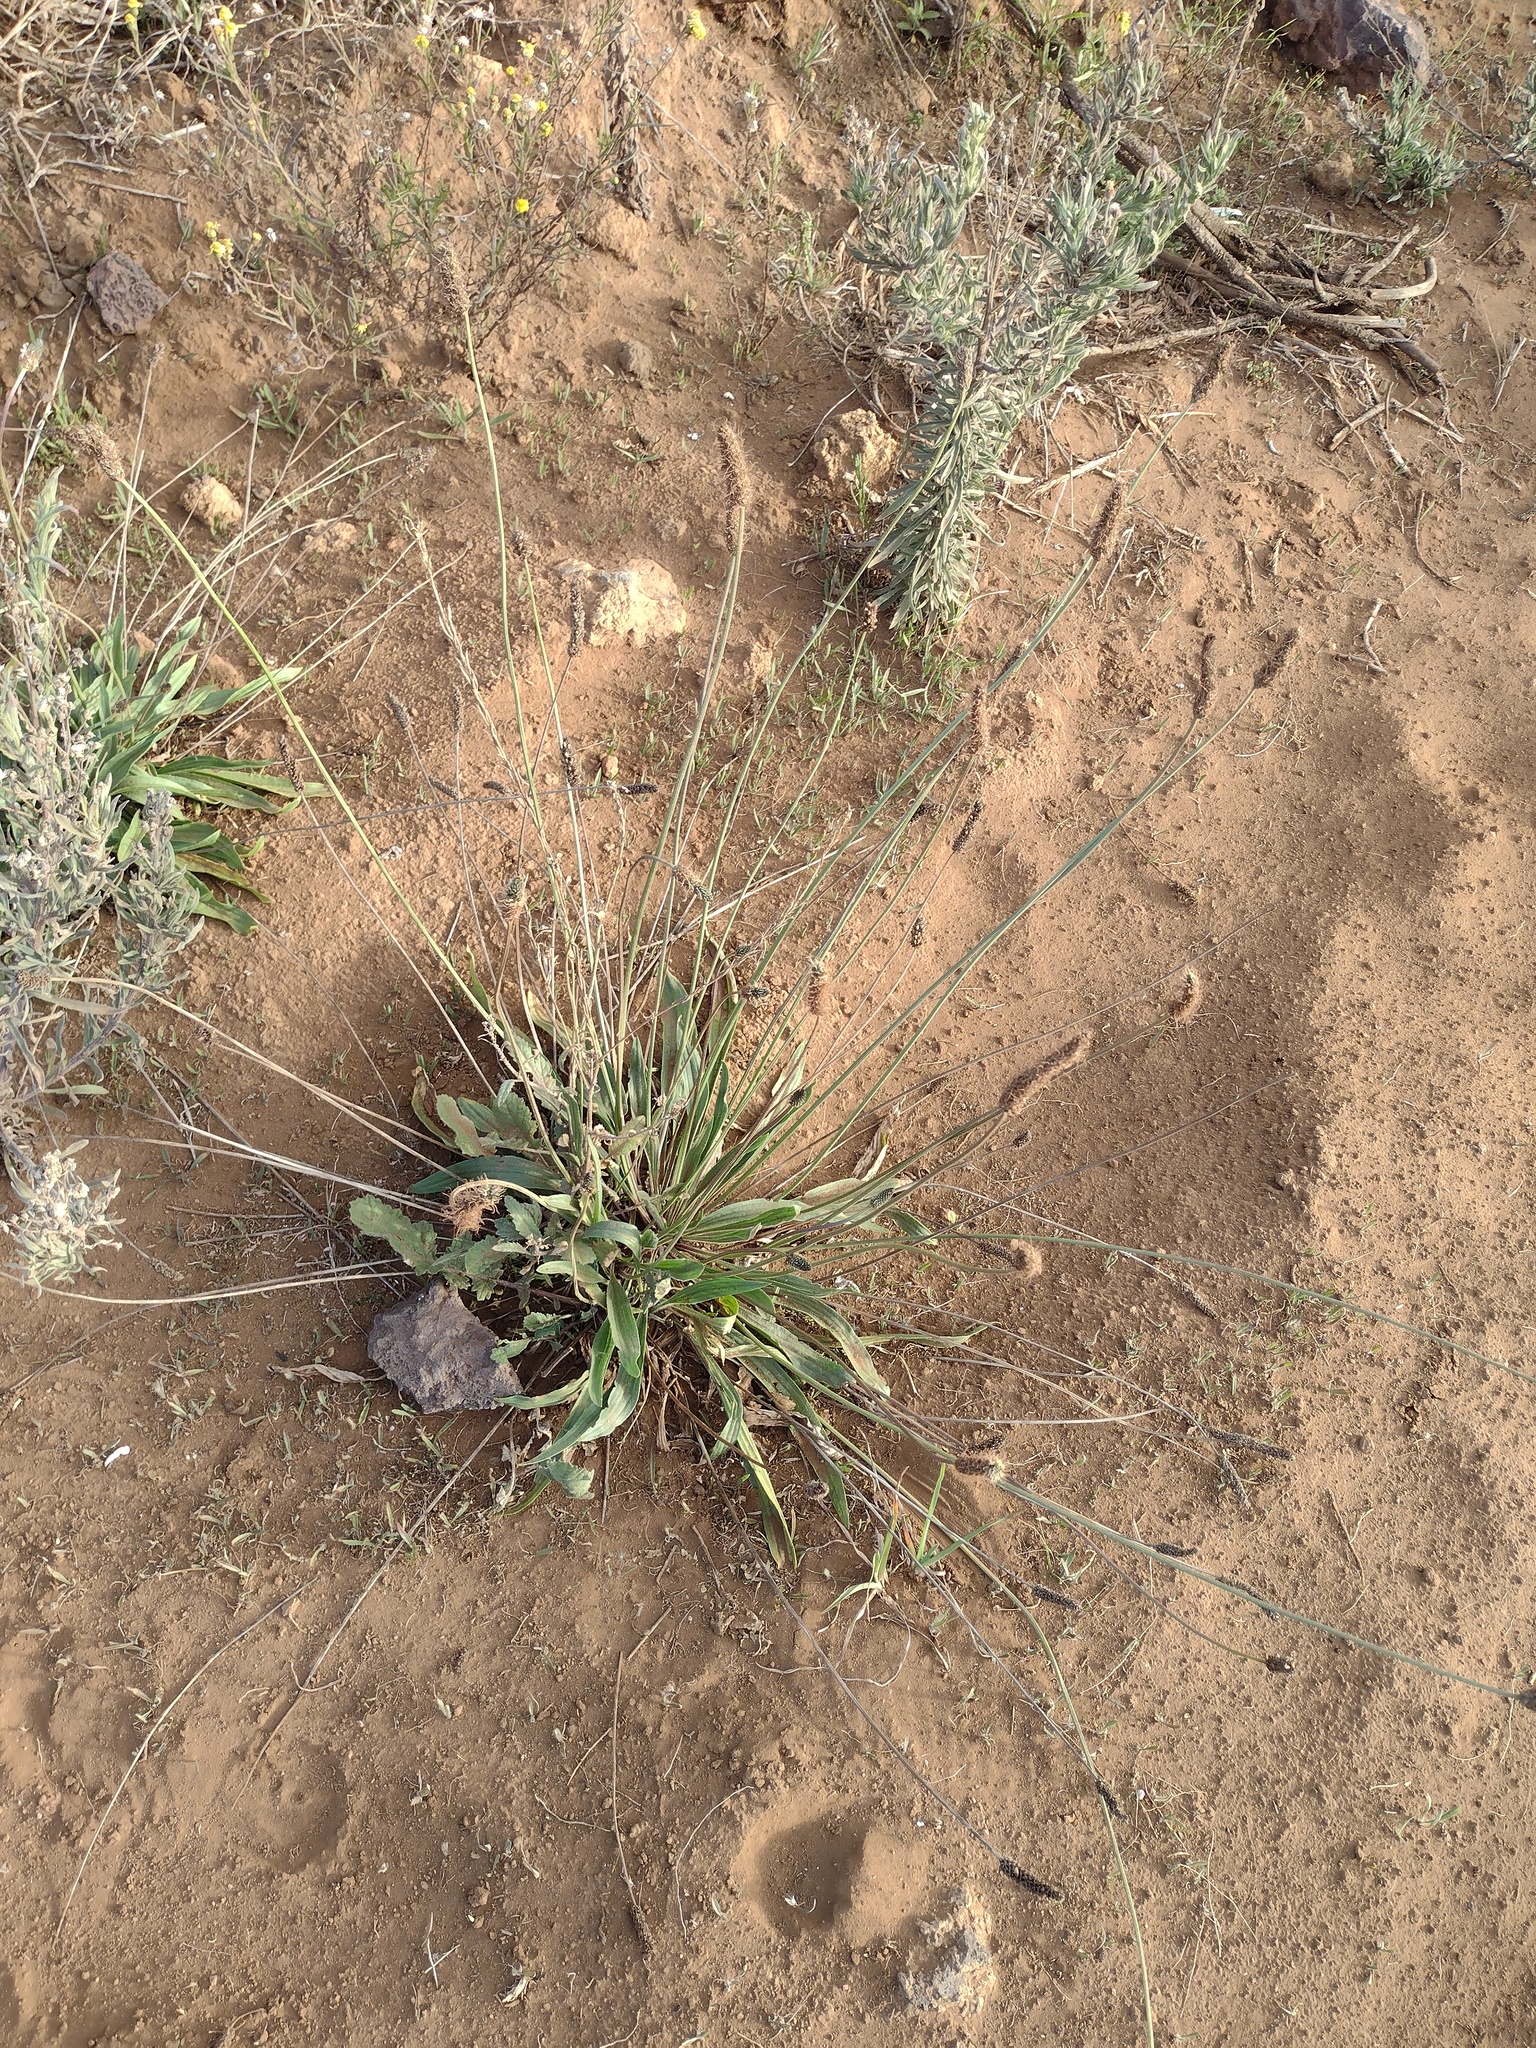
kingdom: Plantae
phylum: Tracheophyta
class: Magnoliopsida
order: Lamiales
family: Plantaginaceae
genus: Plantago
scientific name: Plantago lanceolata
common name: Ribwort plantain
